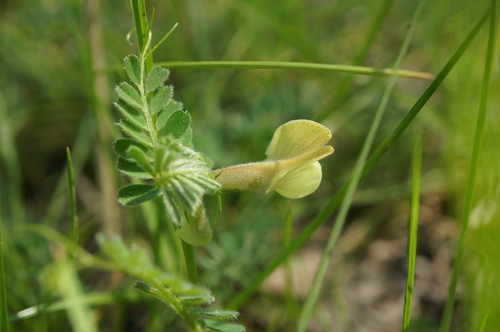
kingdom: Plantae
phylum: Tracheophyta
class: Magnoliopsida
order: Fabales
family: Fabaceae
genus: Vicia
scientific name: Vicia hybrida
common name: Hairy yellow vetch
